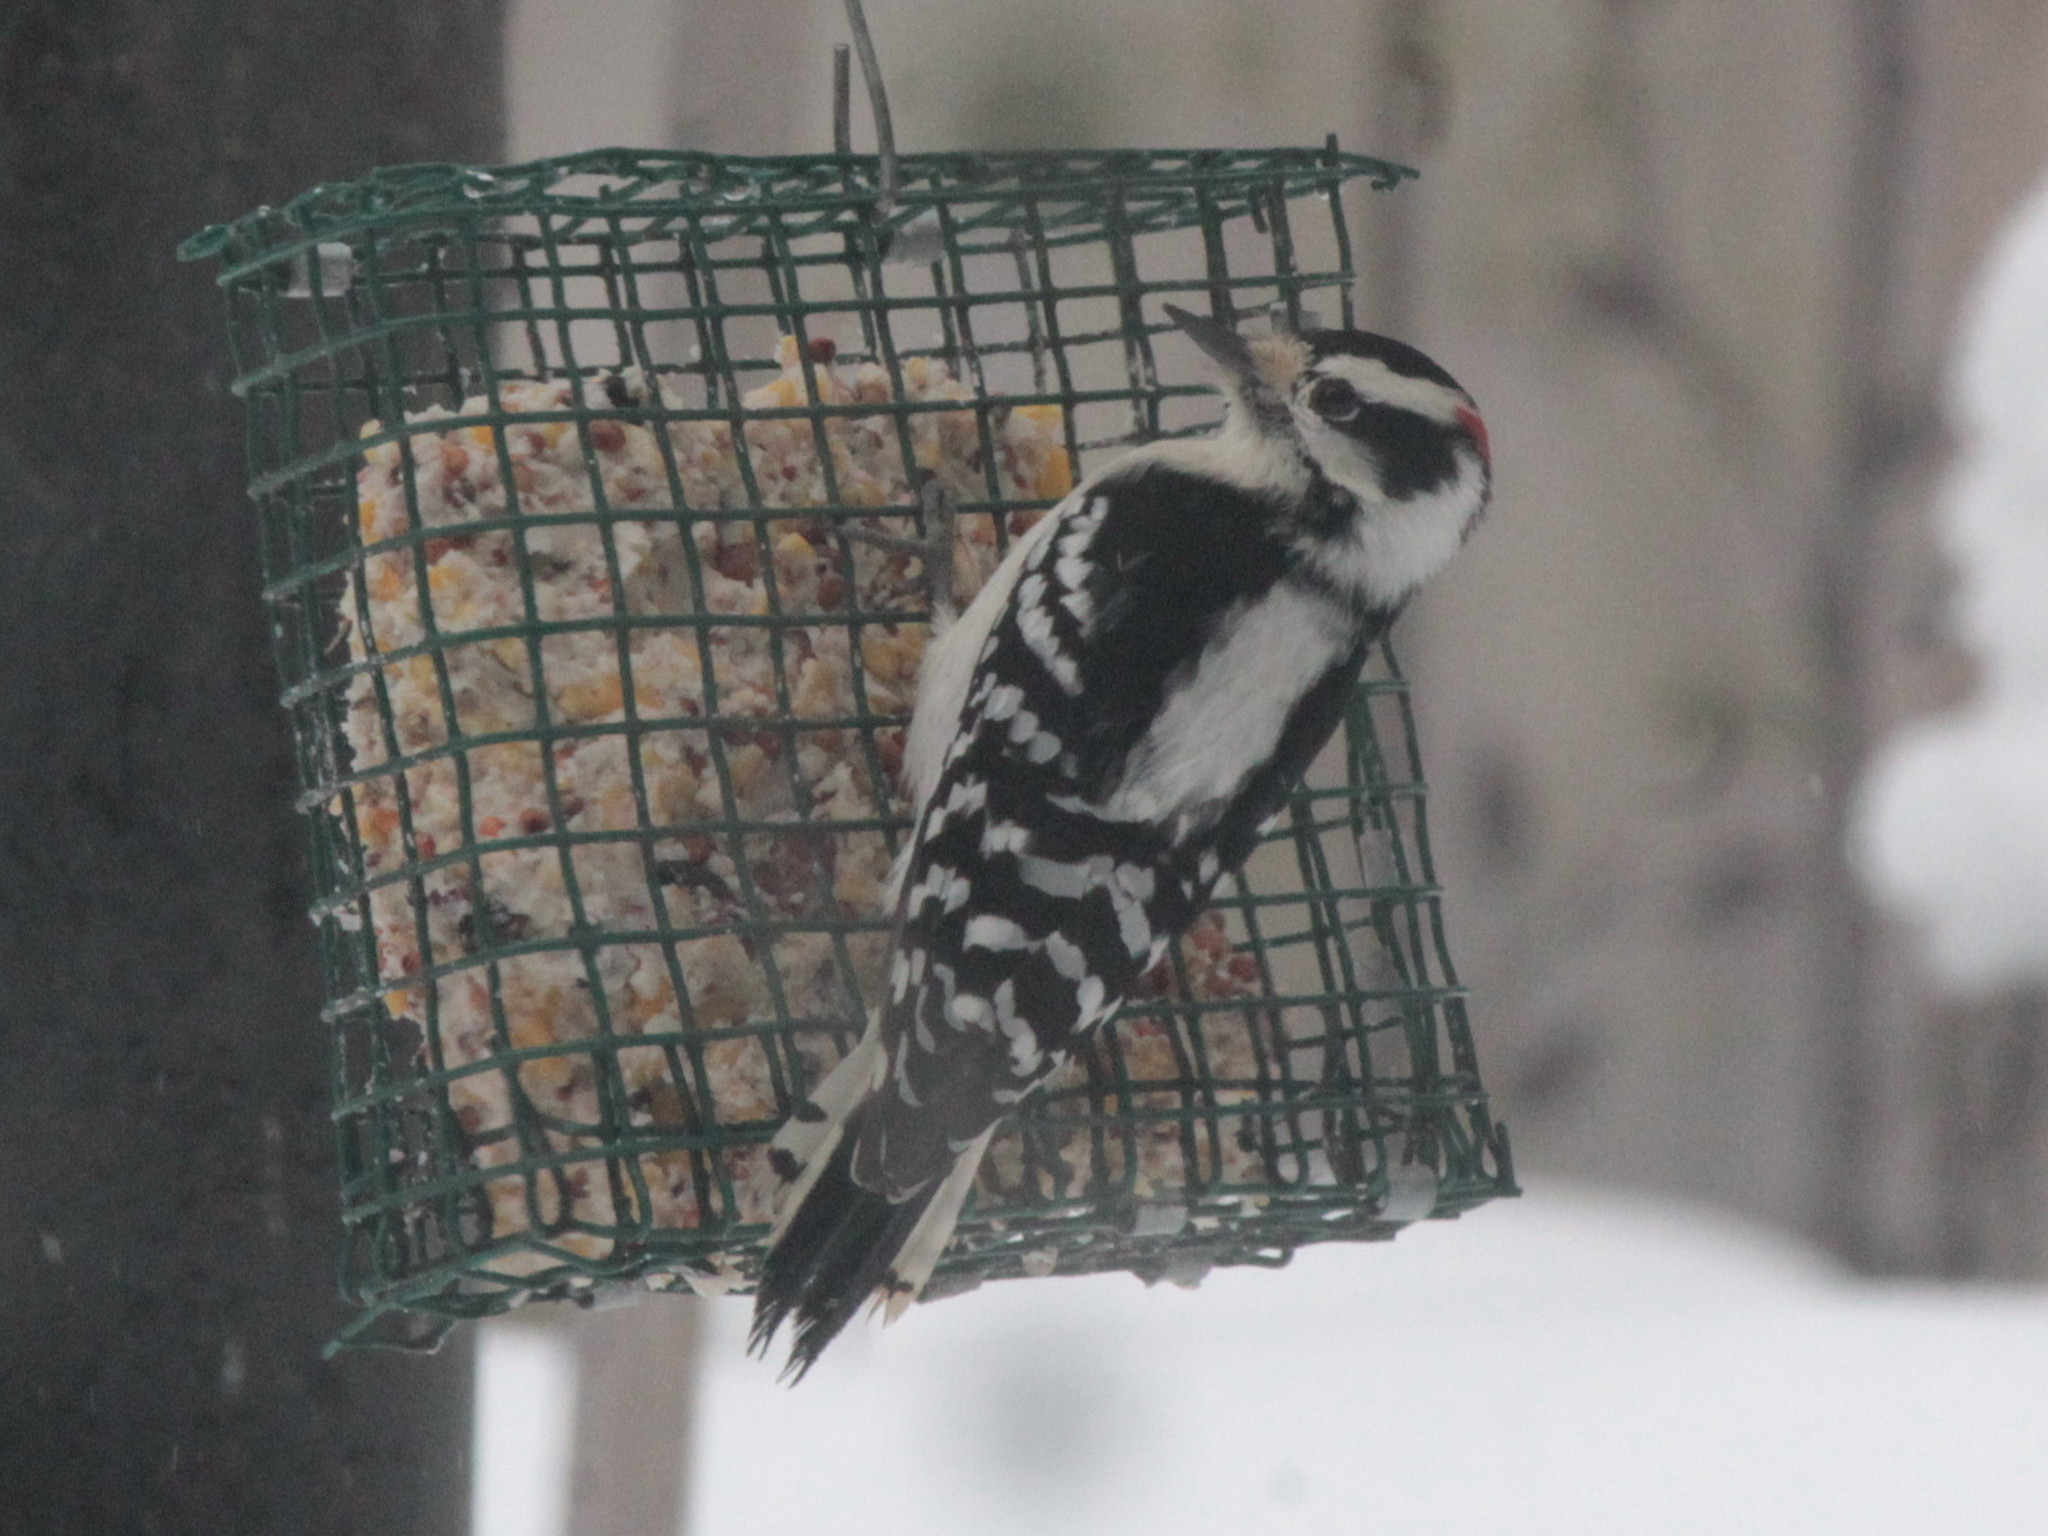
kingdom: Animalia
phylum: Chordata
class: Aves
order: Piciformes
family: Picidae
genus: Dryobates
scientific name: Dryobates pubescens
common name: Downy woodpecker
